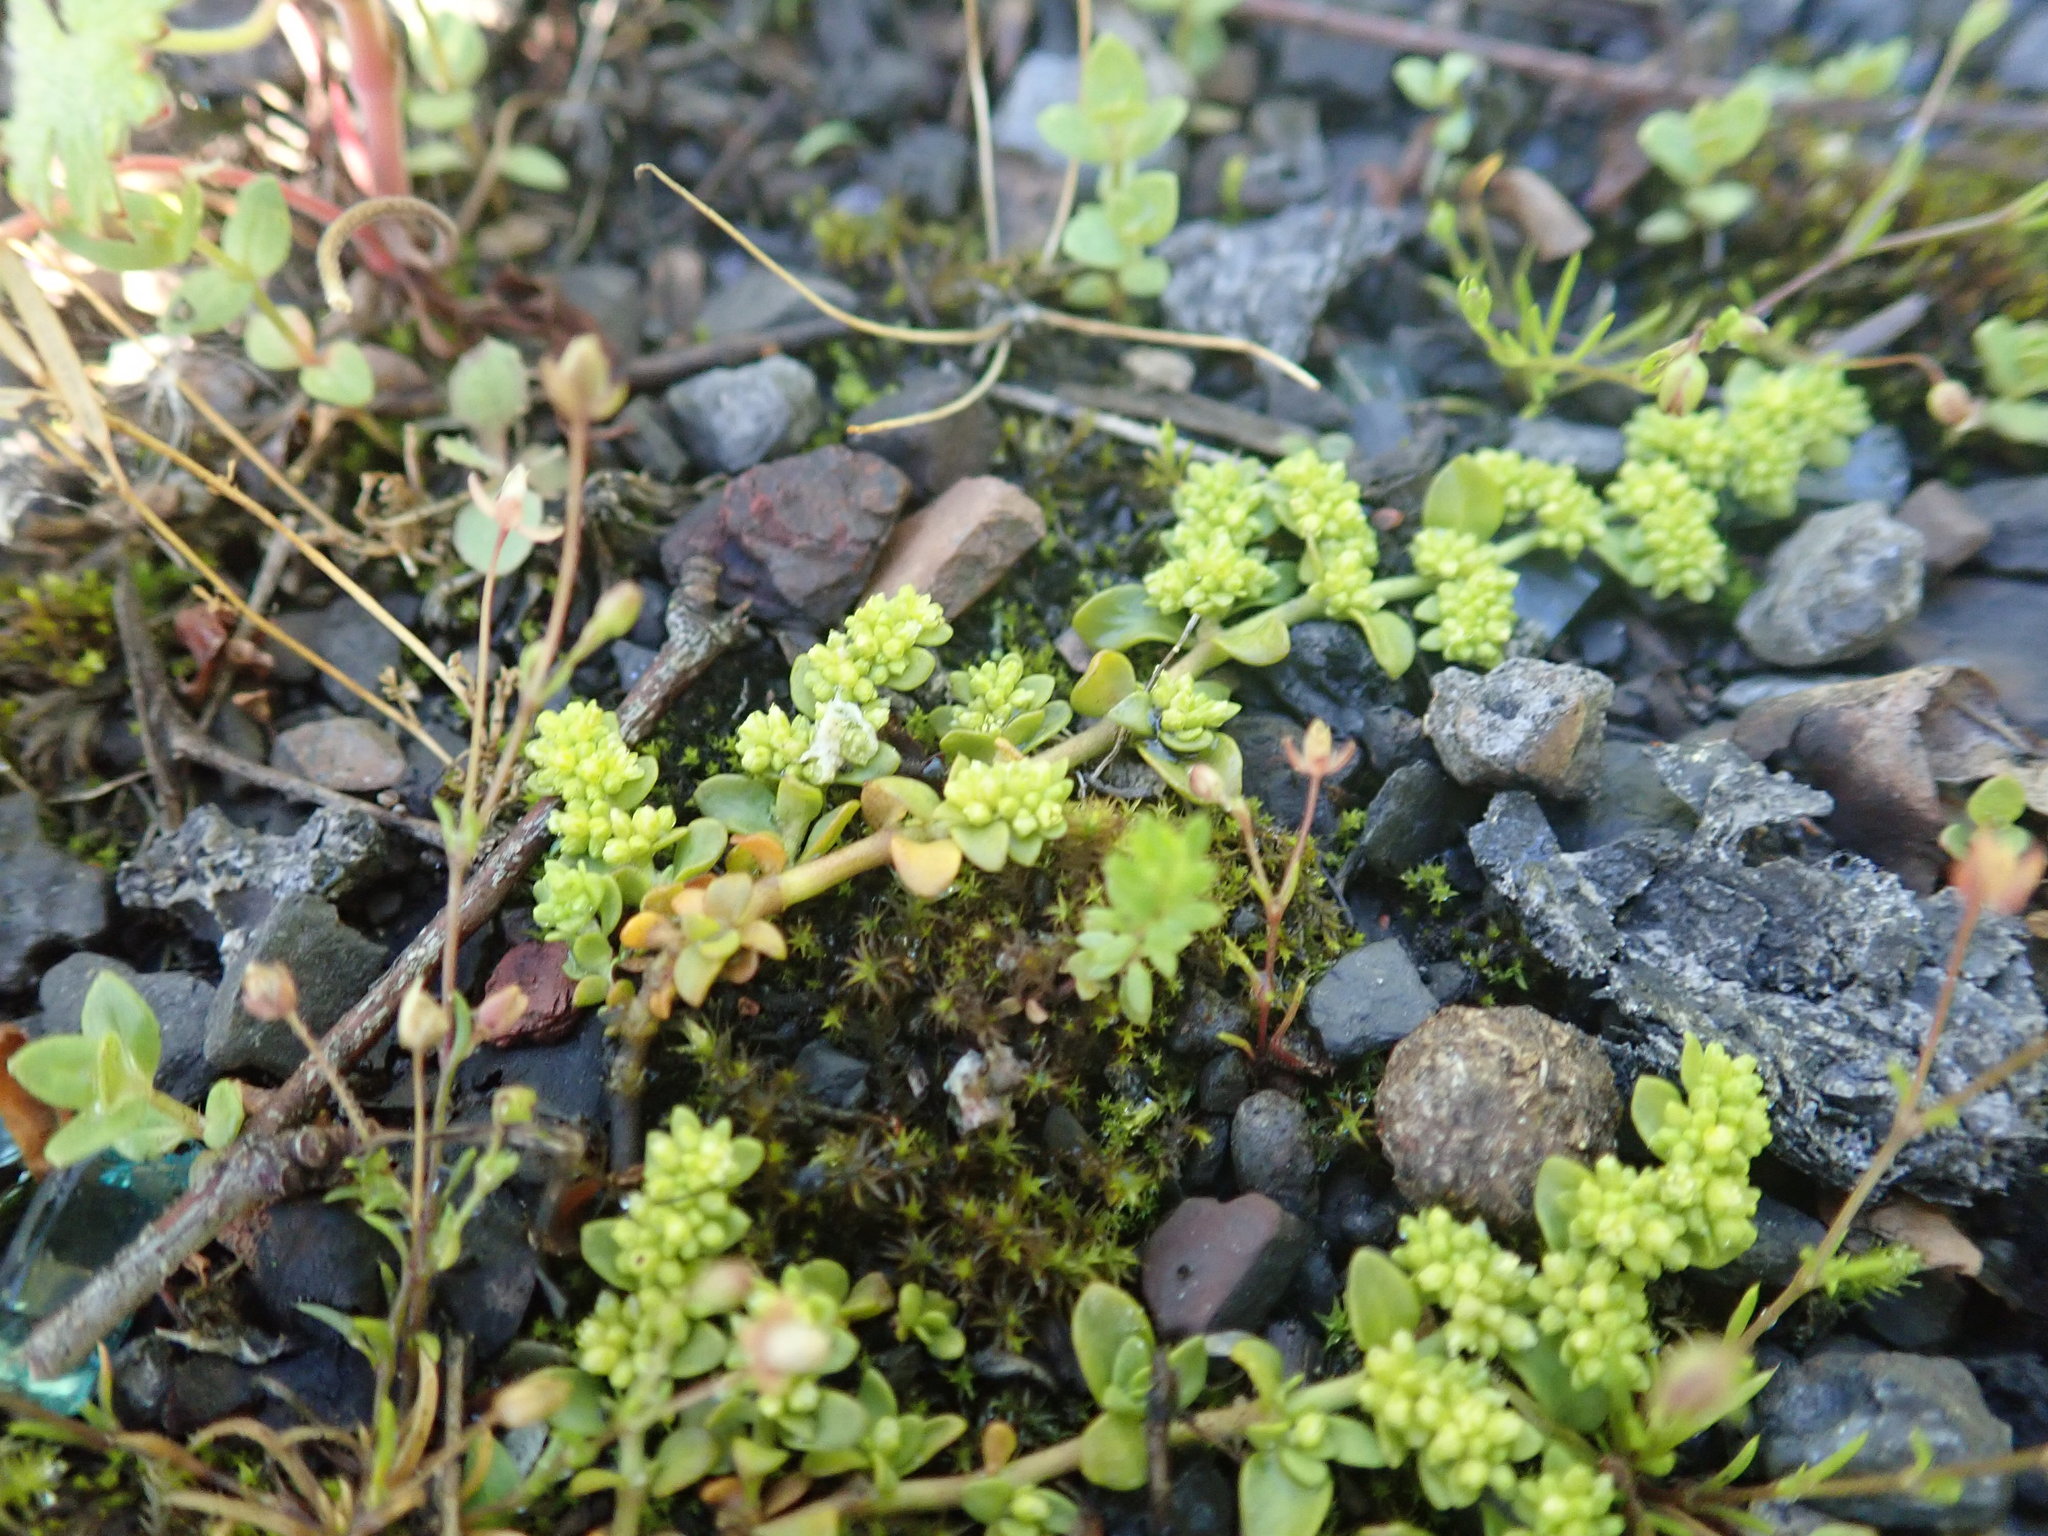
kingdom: Plantae
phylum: Tracheophyta
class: Magnoliopsida
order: Caryophyllales
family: Caryophyllaceae
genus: Herniaria
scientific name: Herniaria glabra
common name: Smooth rupturewort
